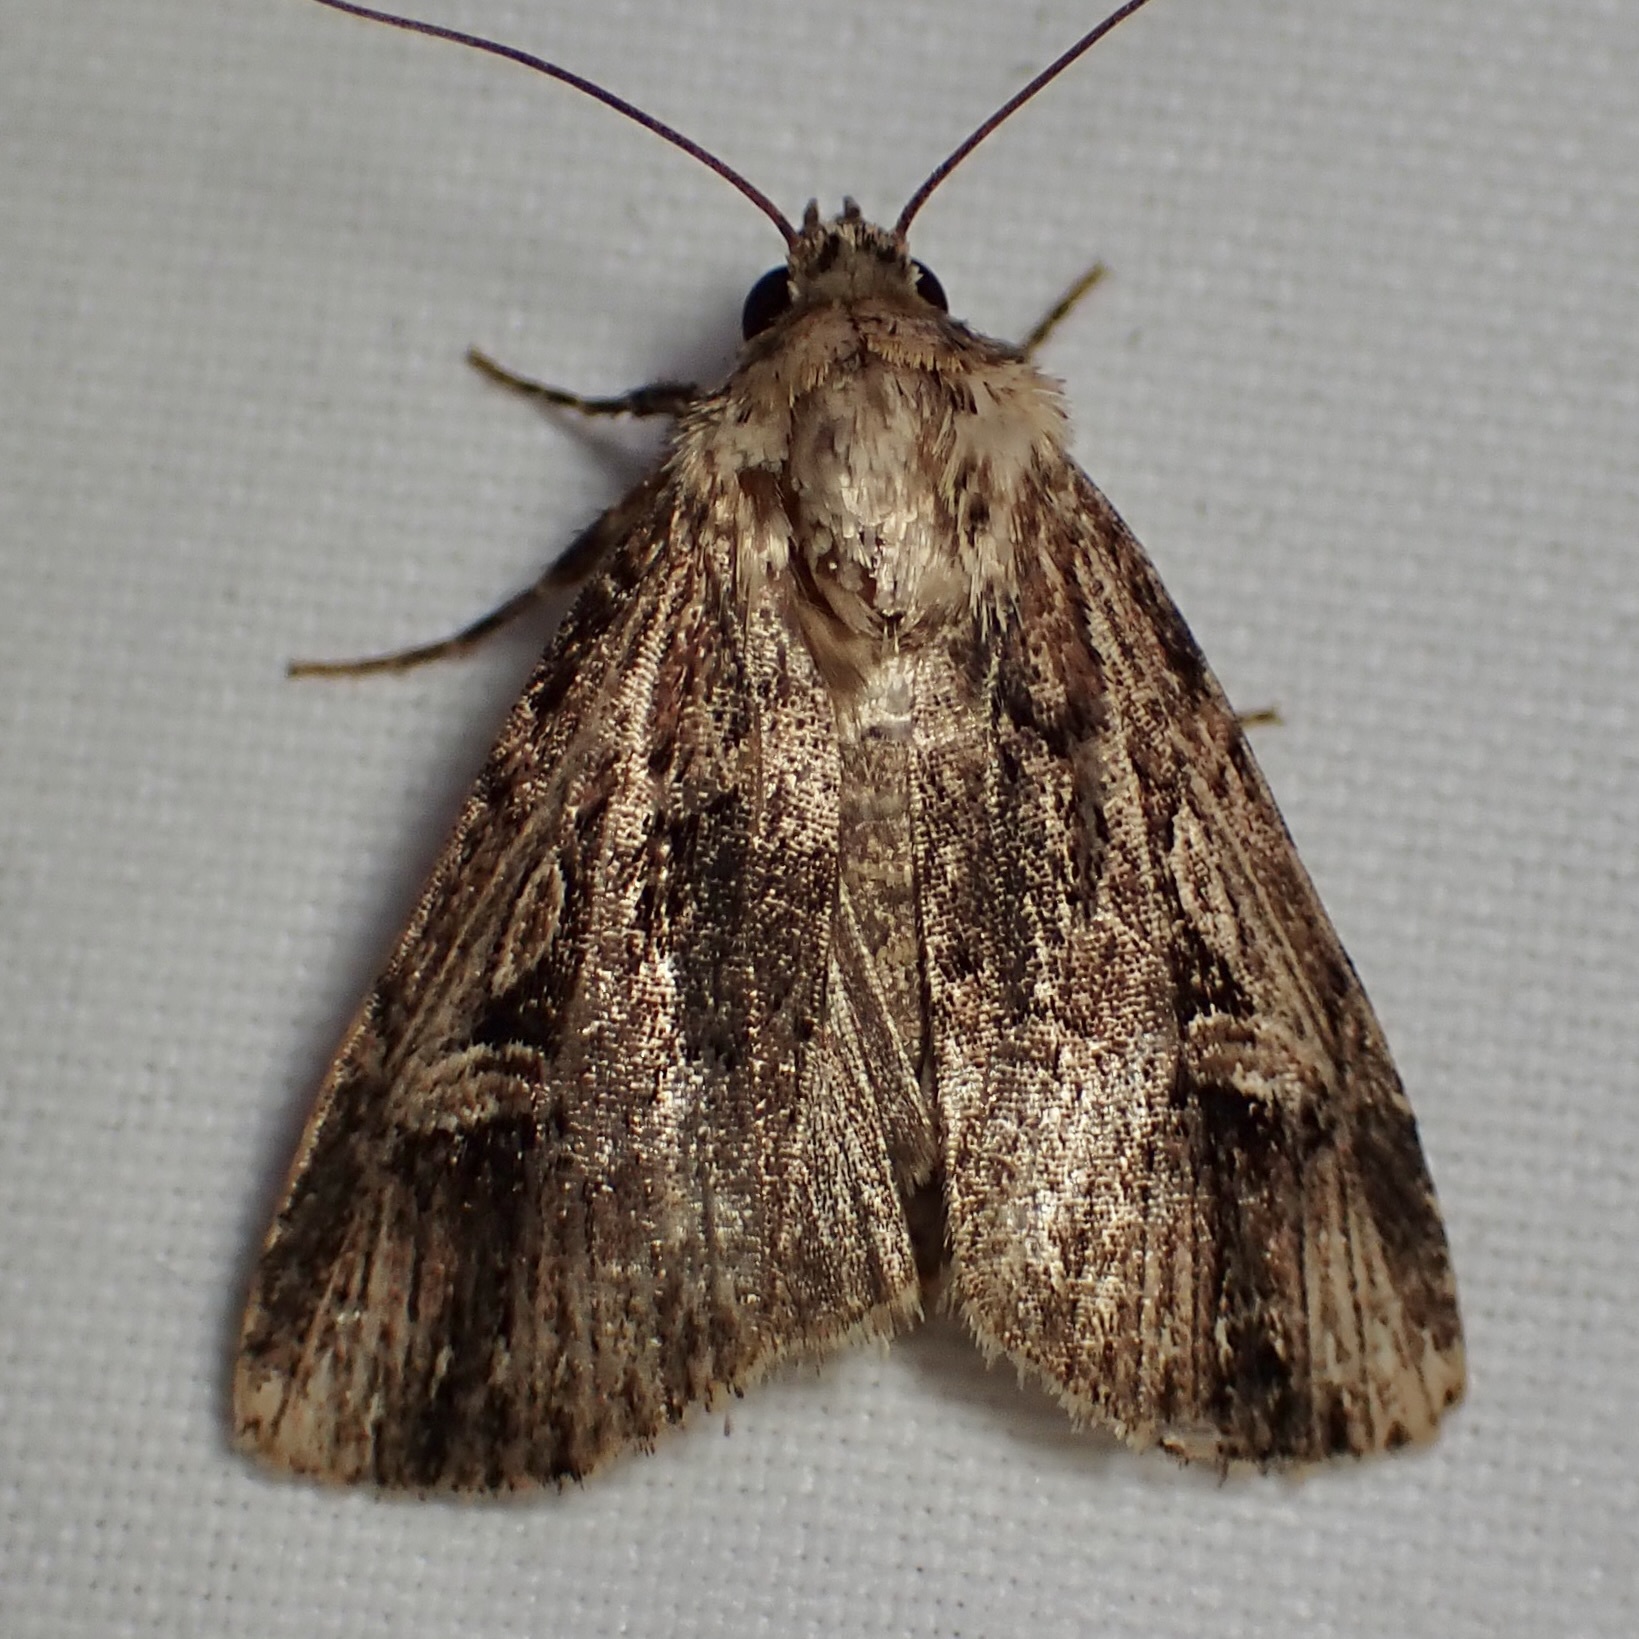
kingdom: Animalia
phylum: Arthropoda
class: Insecta
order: Lepidoptera
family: Noctuidae
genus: Dichagyris
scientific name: Dichagyris cataclivis
